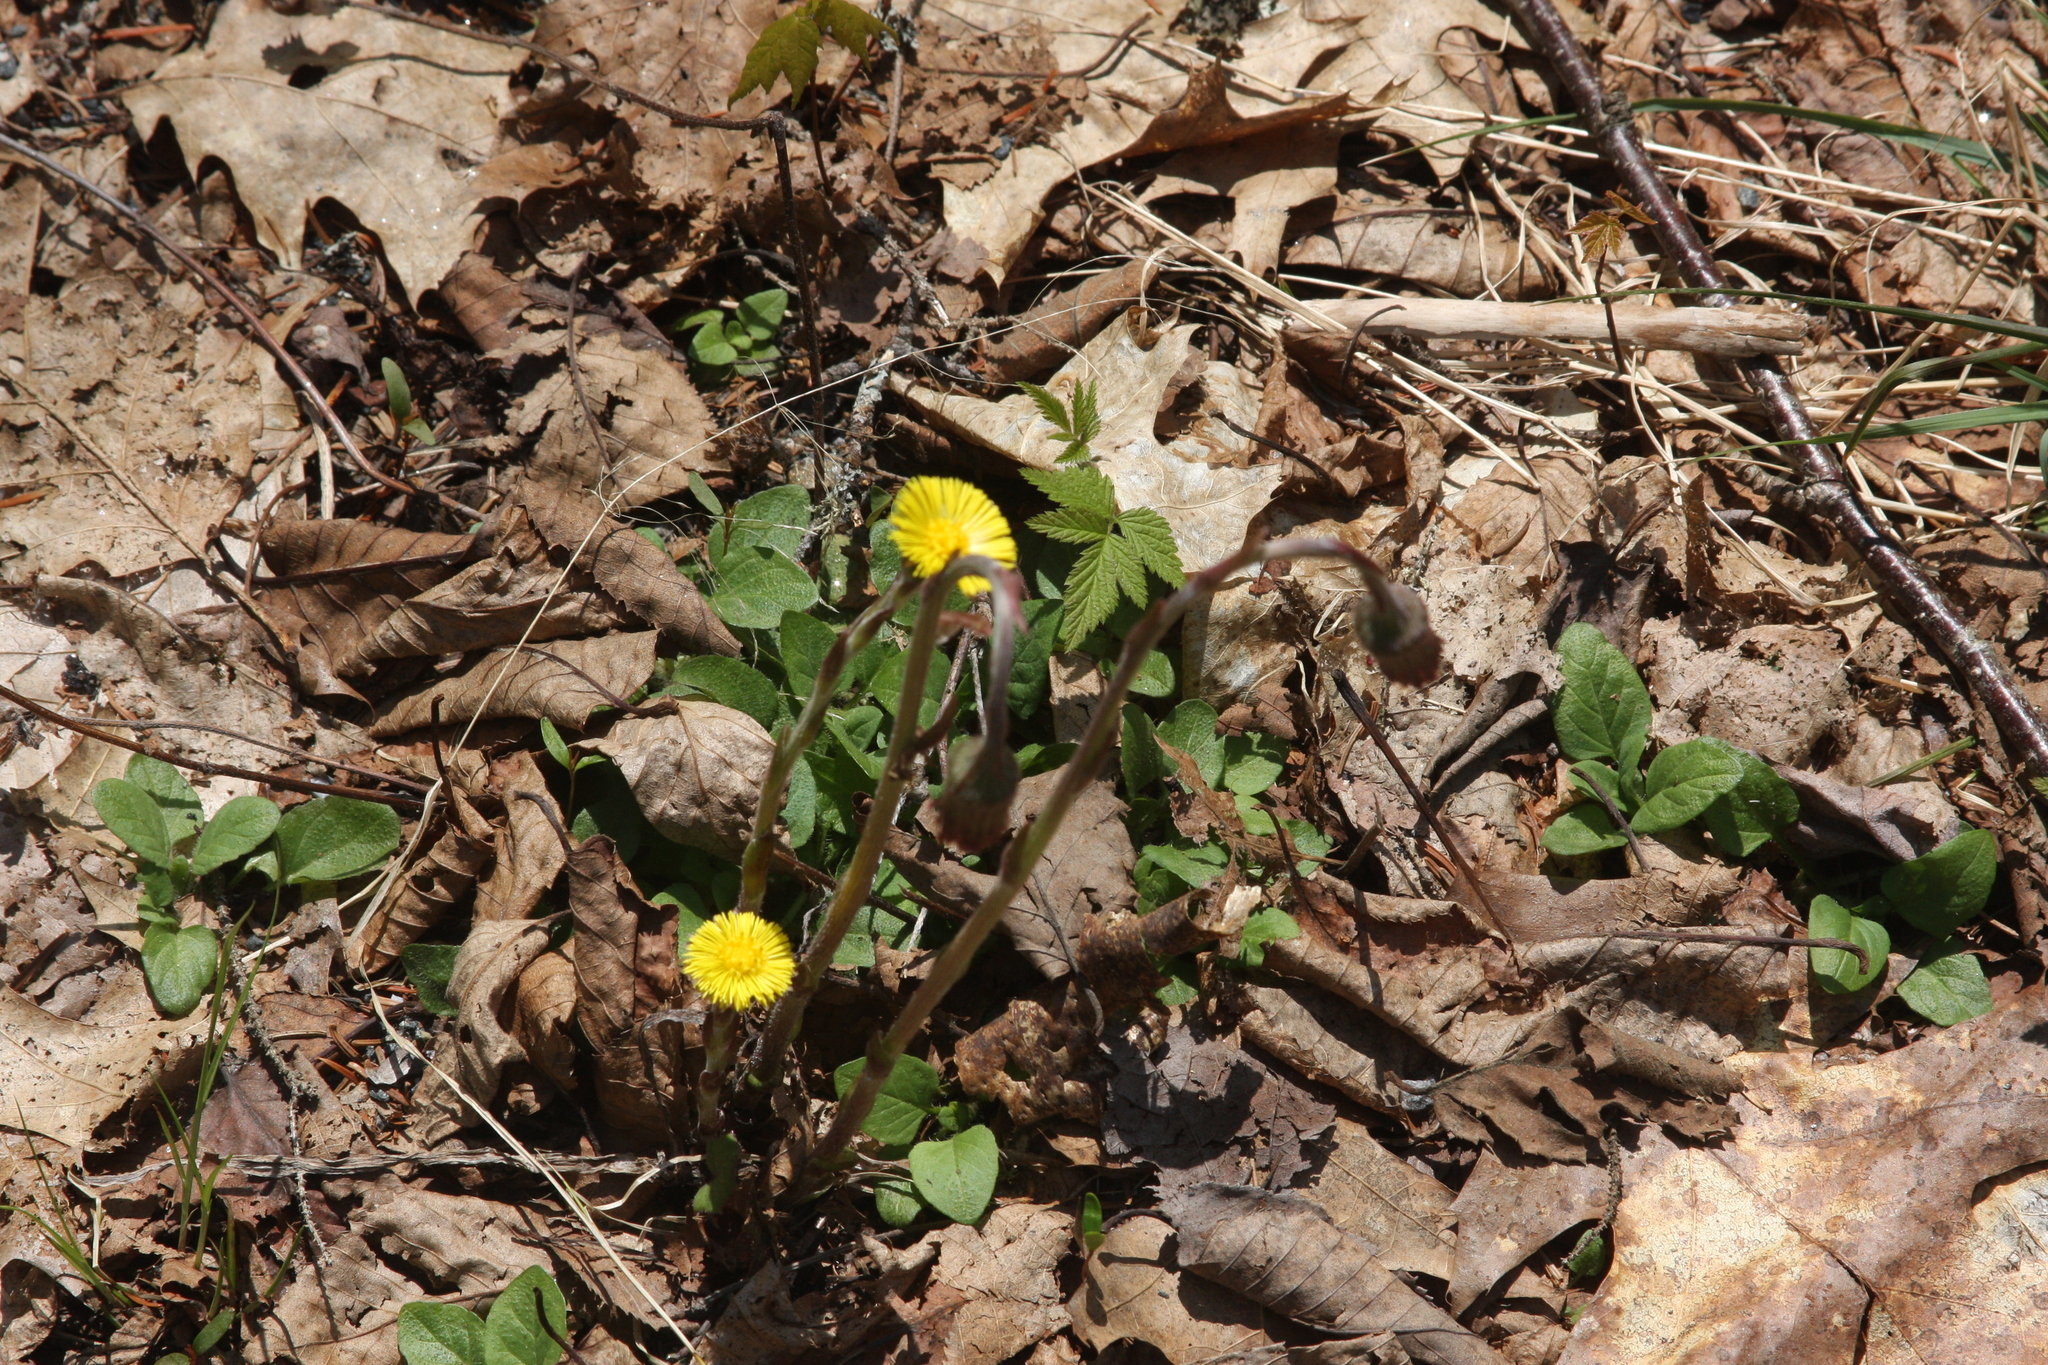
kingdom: Plantae
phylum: Tracheophyta
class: Magnoliopsida
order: Asterales
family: Asteraceae
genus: Tussilago
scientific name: Tussilago farfara
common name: Coltsfoot
